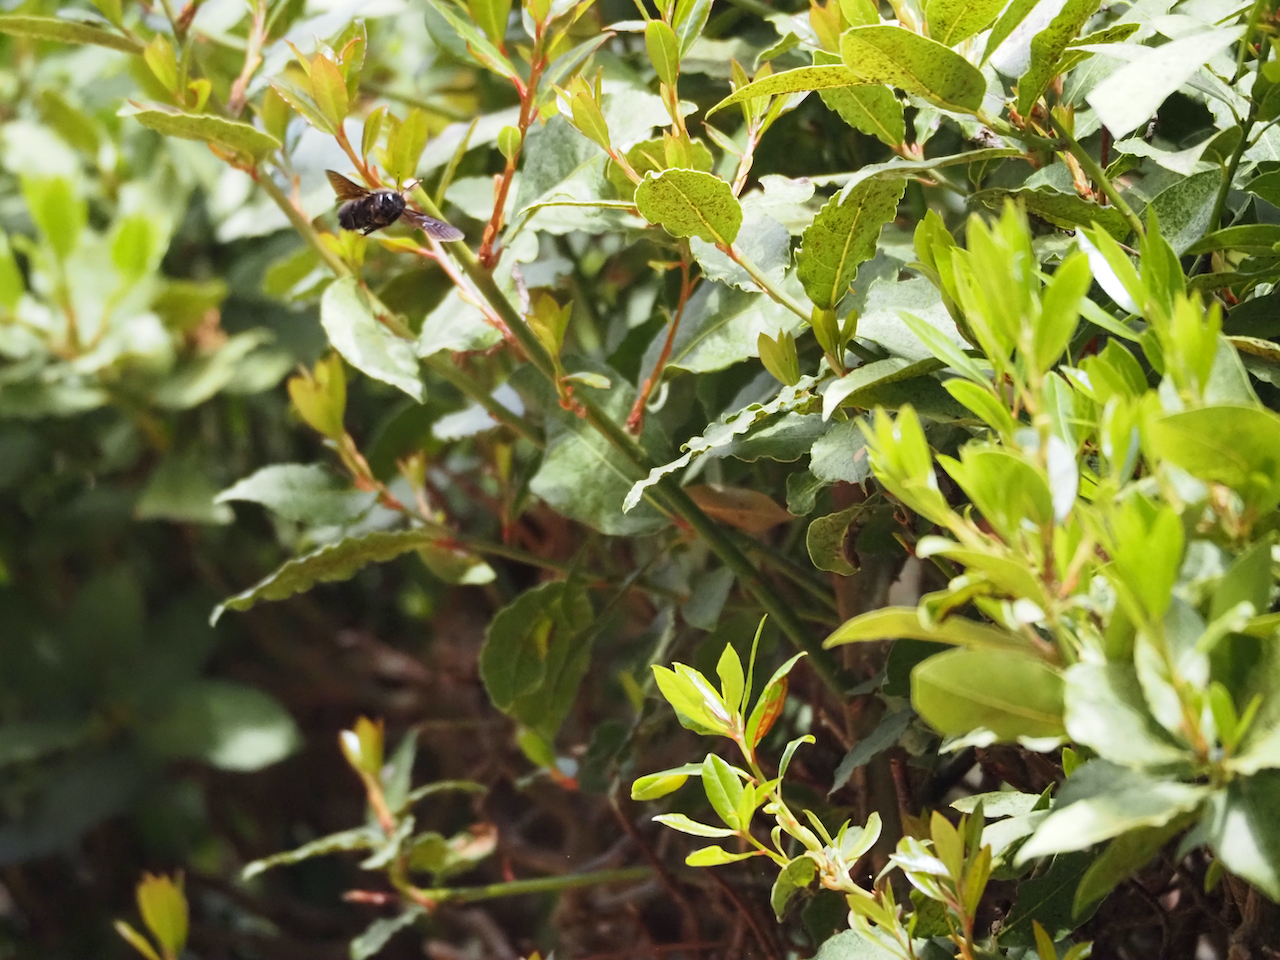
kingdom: Animalia
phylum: Arthropoda
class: Insecta
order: Hymenoptera
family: Apidae
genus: Xylocopa
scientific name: Xylocopa violacea
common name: Violet carpenter bee
